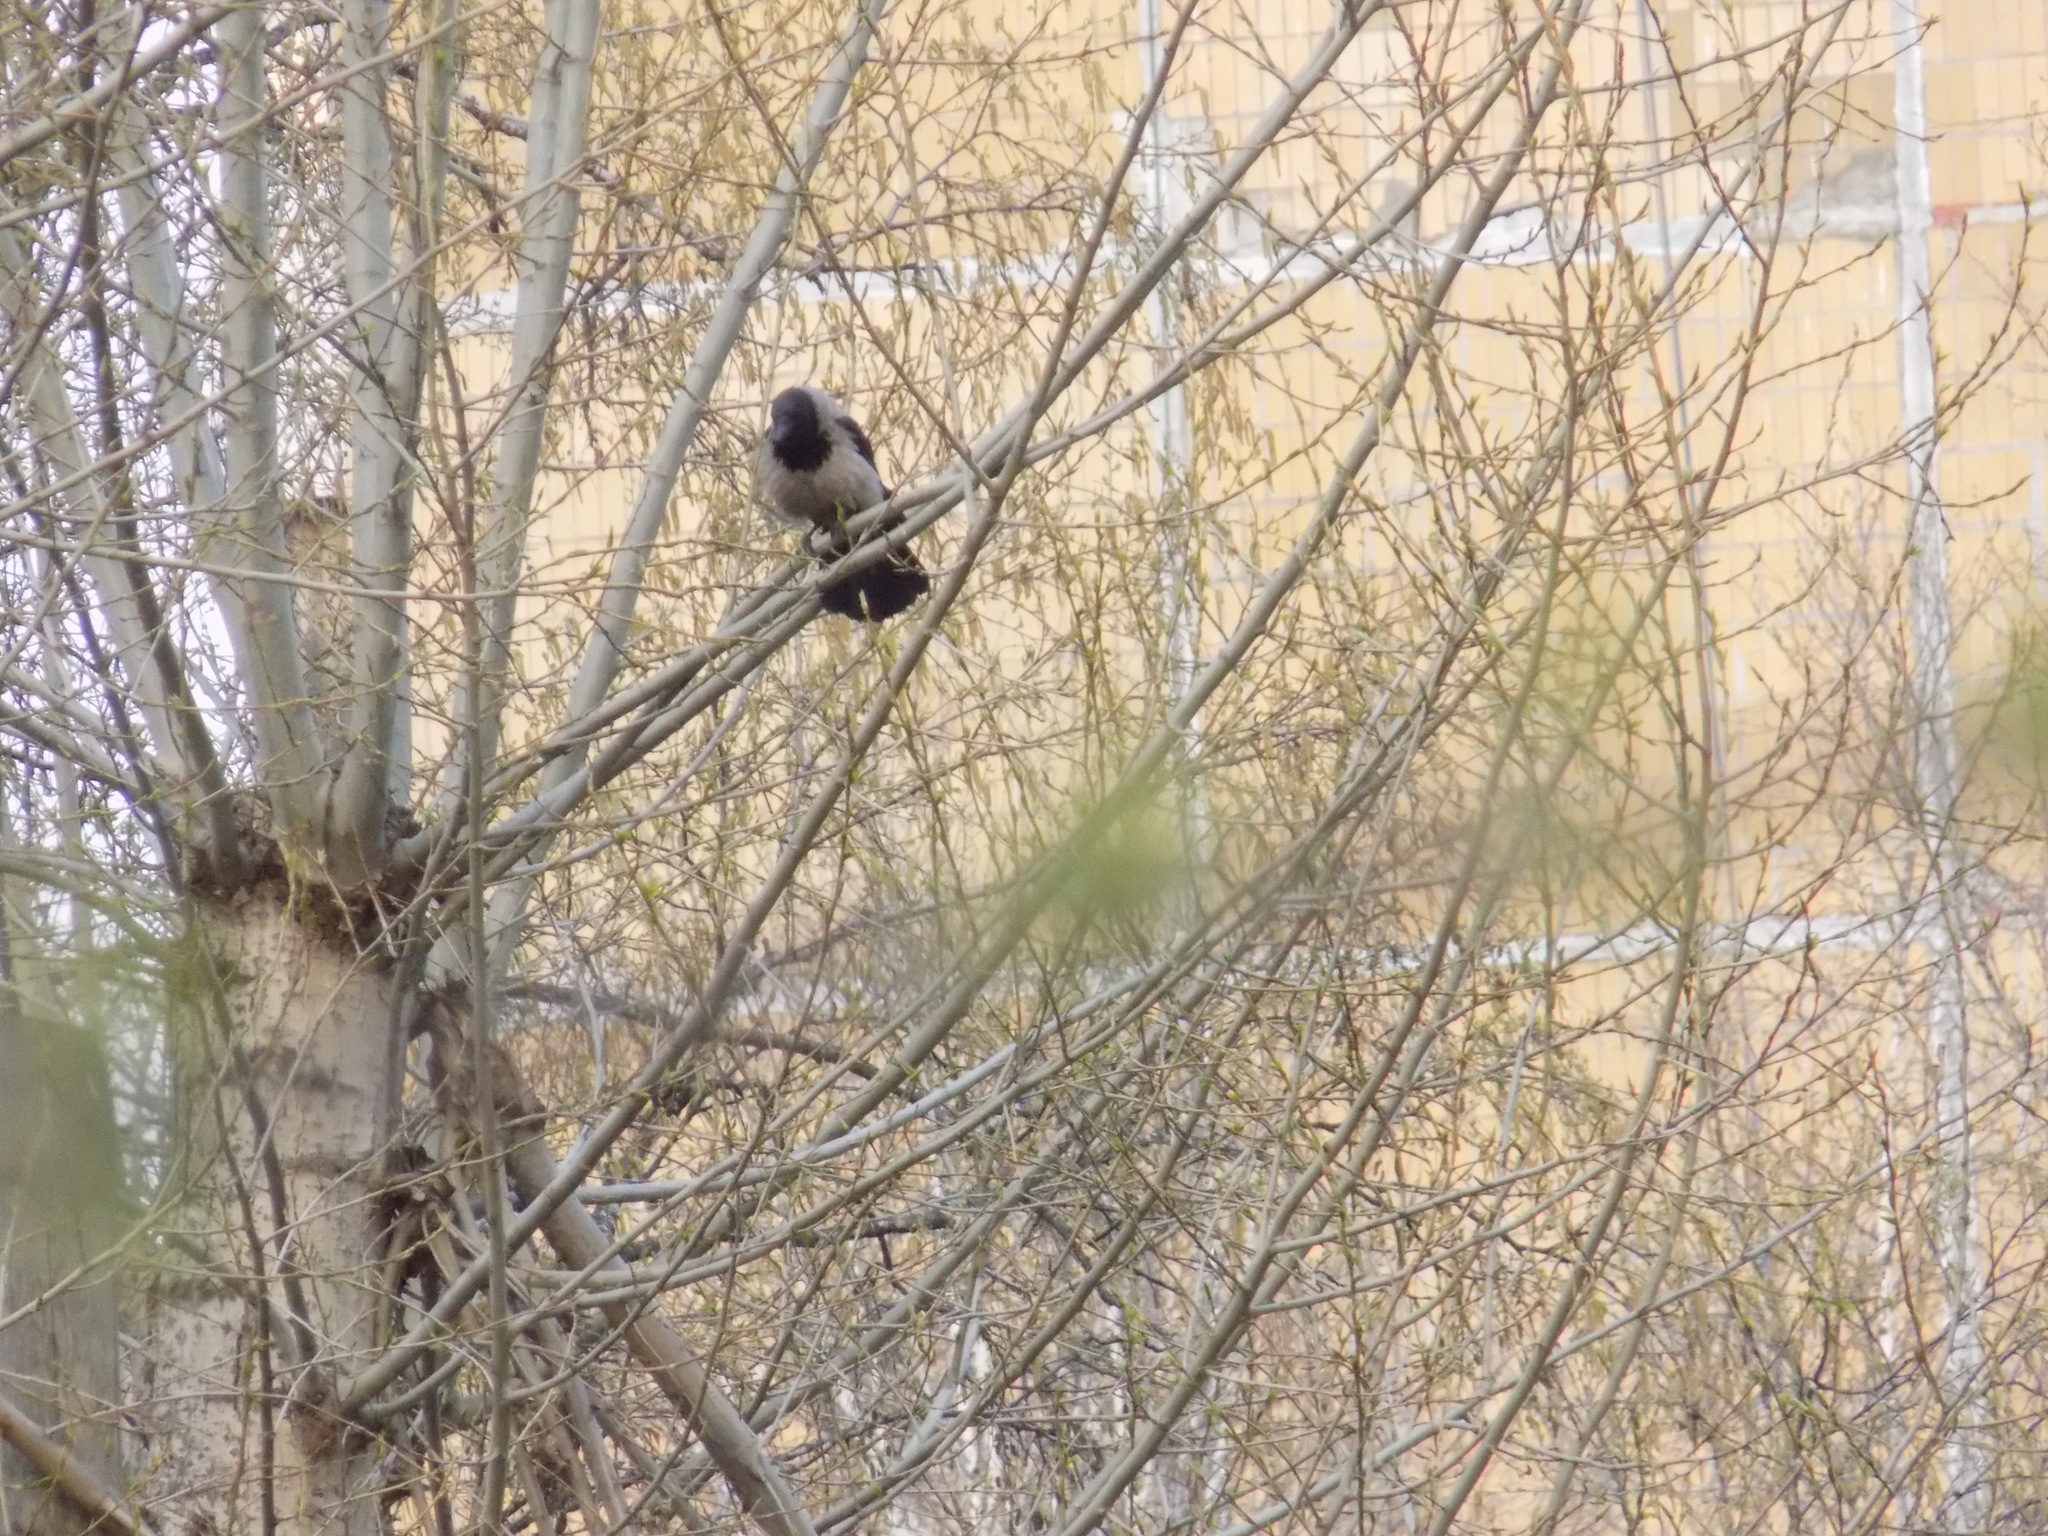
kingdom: Animalia
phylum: Chordata
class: Aves
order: Passeriformes
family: Corvidae
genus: Corvus
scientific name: Corvus cornix
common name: Hooded crow
